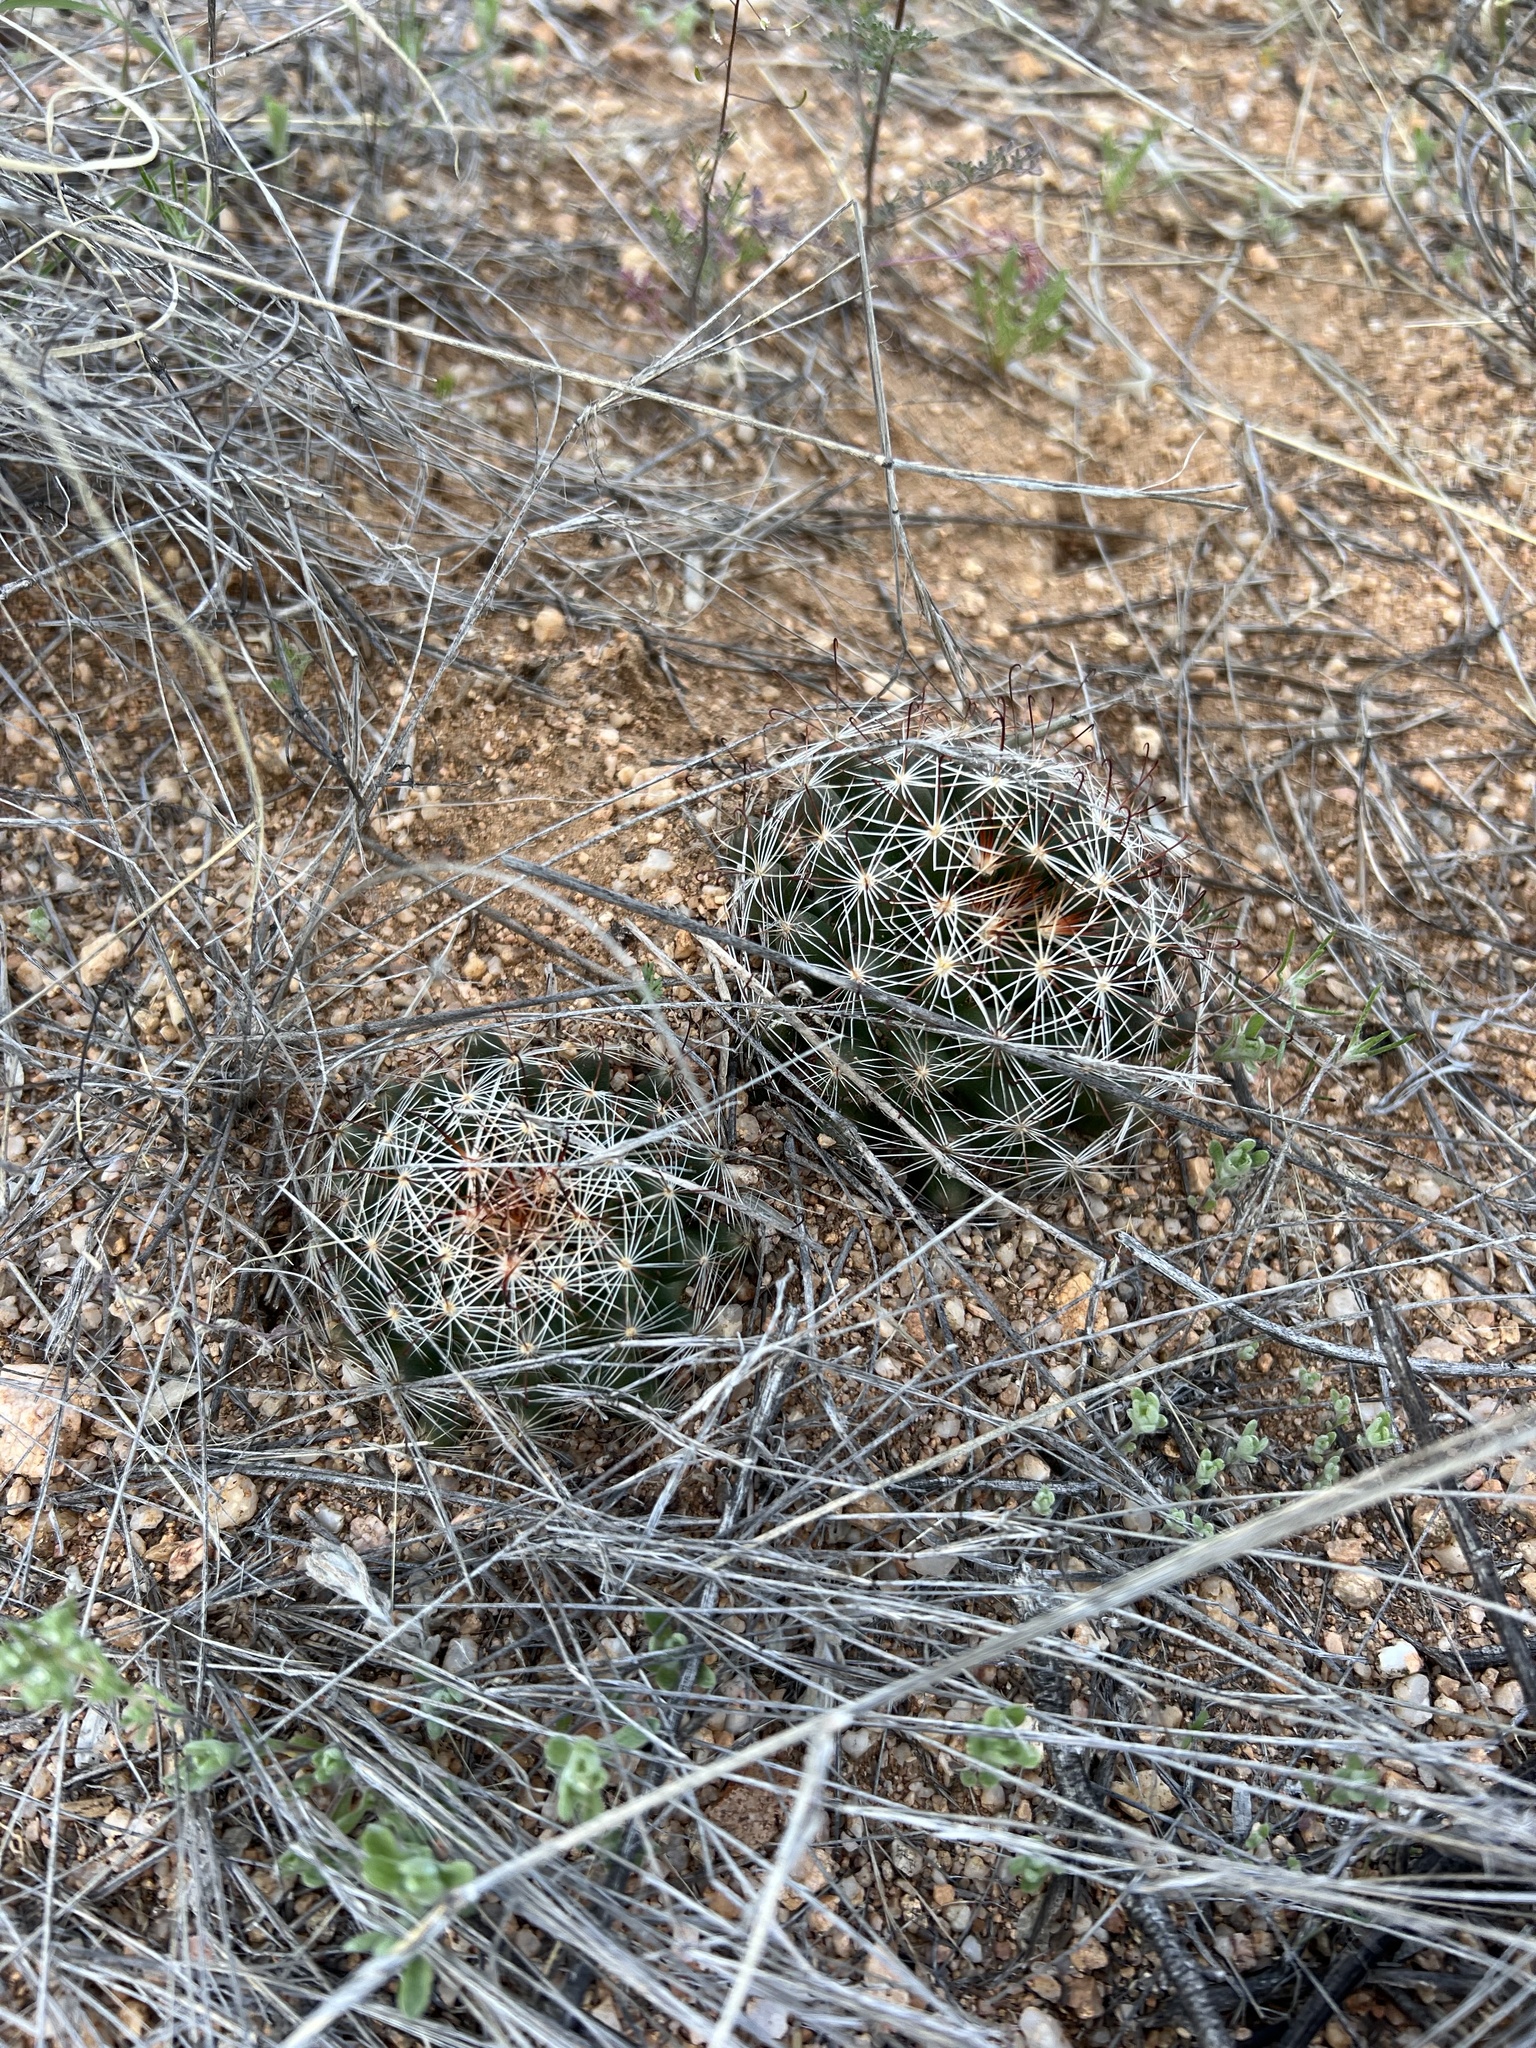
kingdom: Plantae
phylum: Tracheophyta
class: Magnoliopsida
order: Caryophyllales
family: Cactaceae
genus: Cochemiea
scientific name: Cochemiea wrightii
